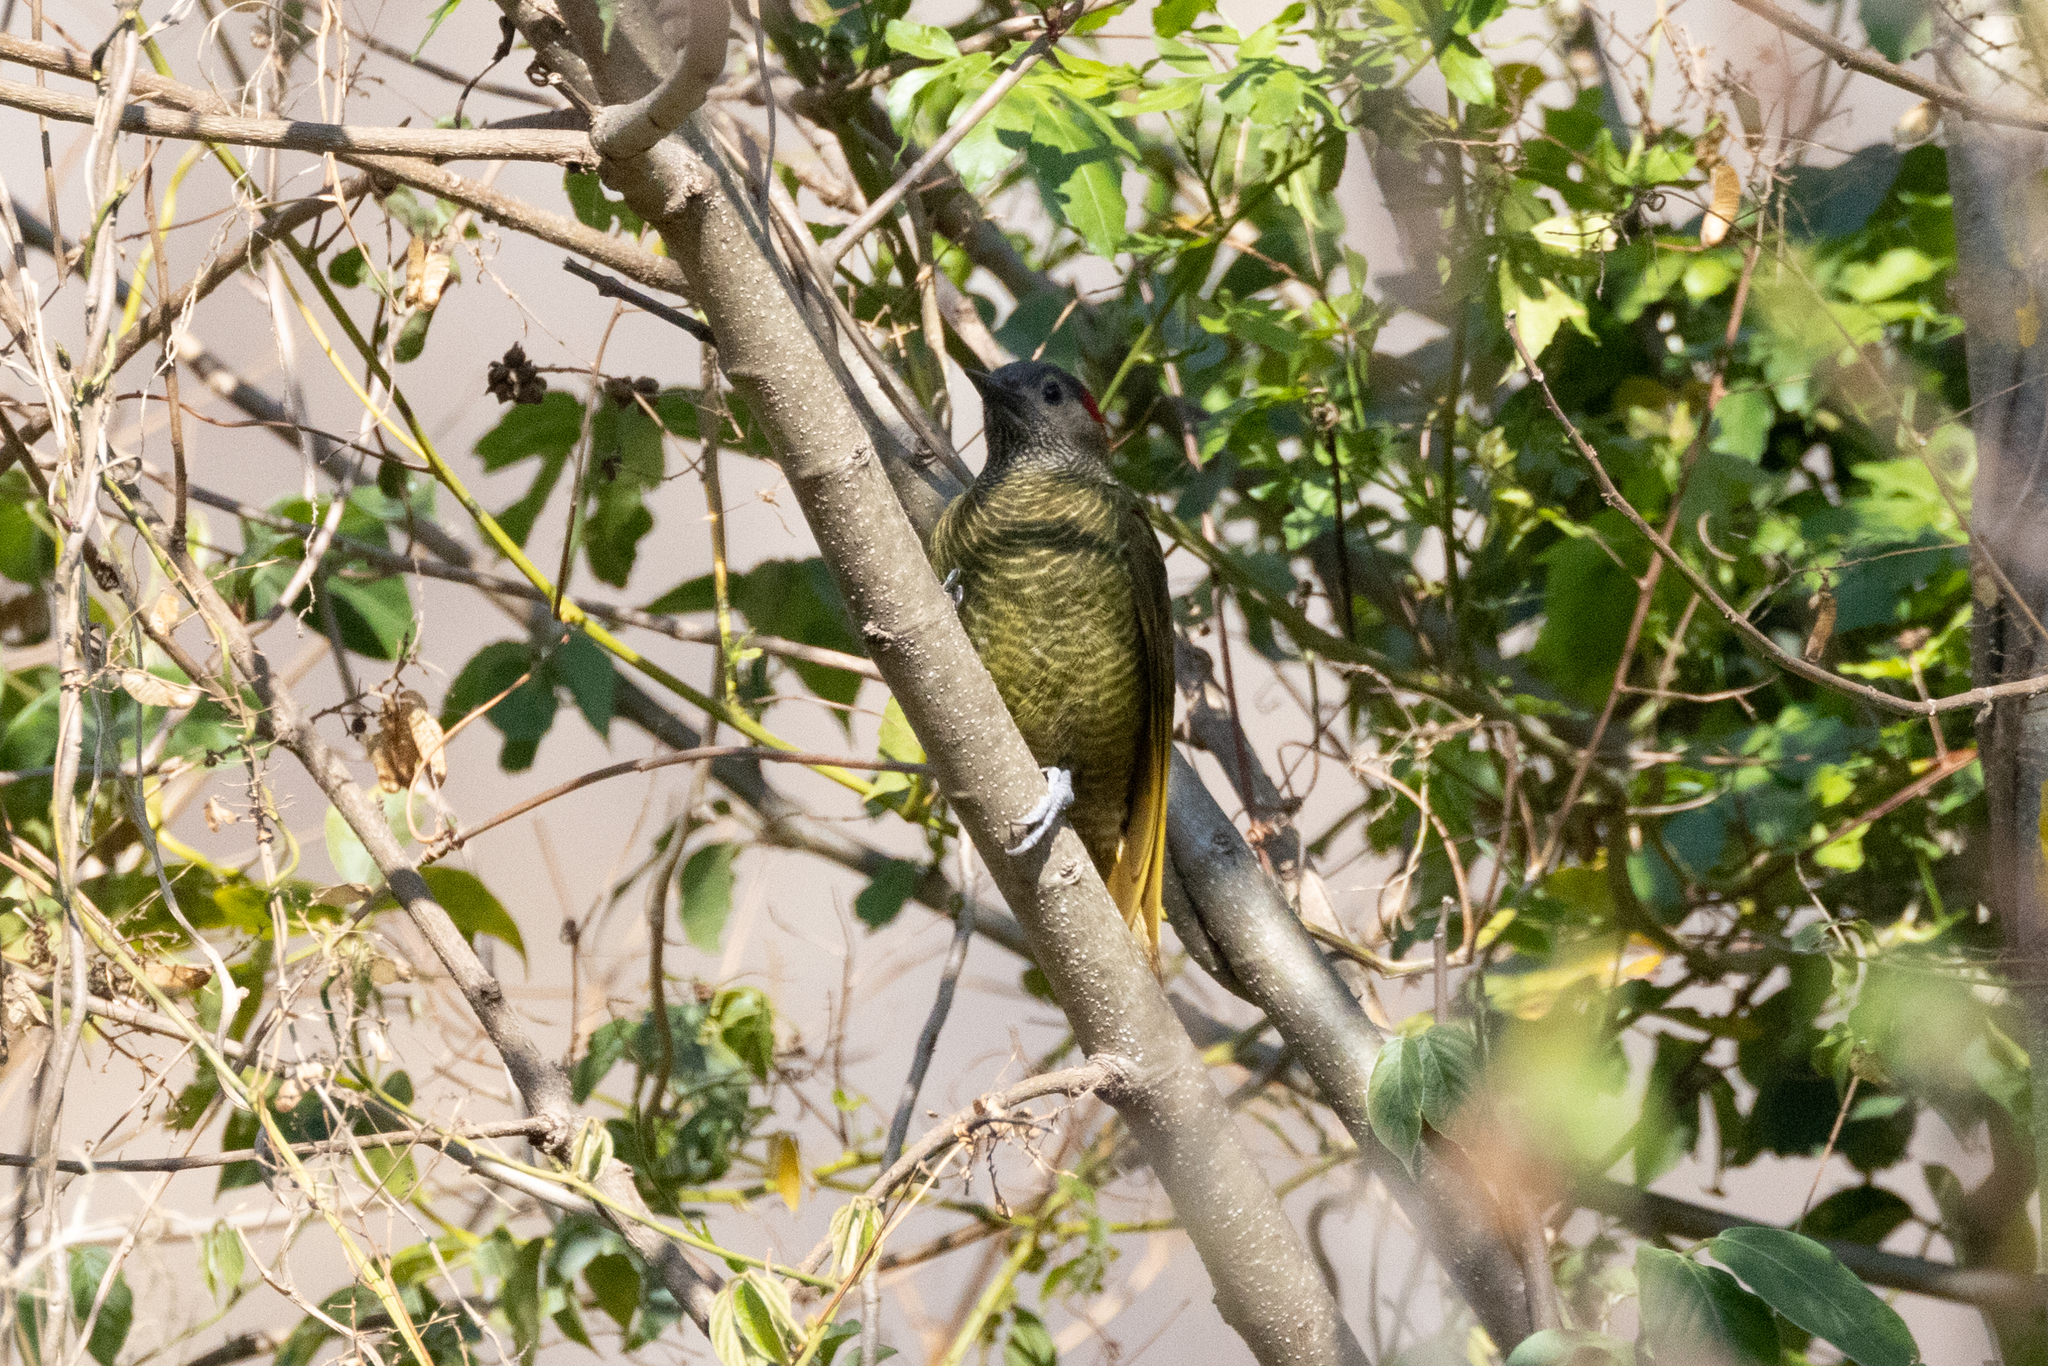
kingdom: Animalia
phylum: Chordata
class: Aves
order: Piciformes
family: Picidae
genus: Colaptes
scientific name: Colaptes rubiginosus
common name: Golden-olive woodpecker
